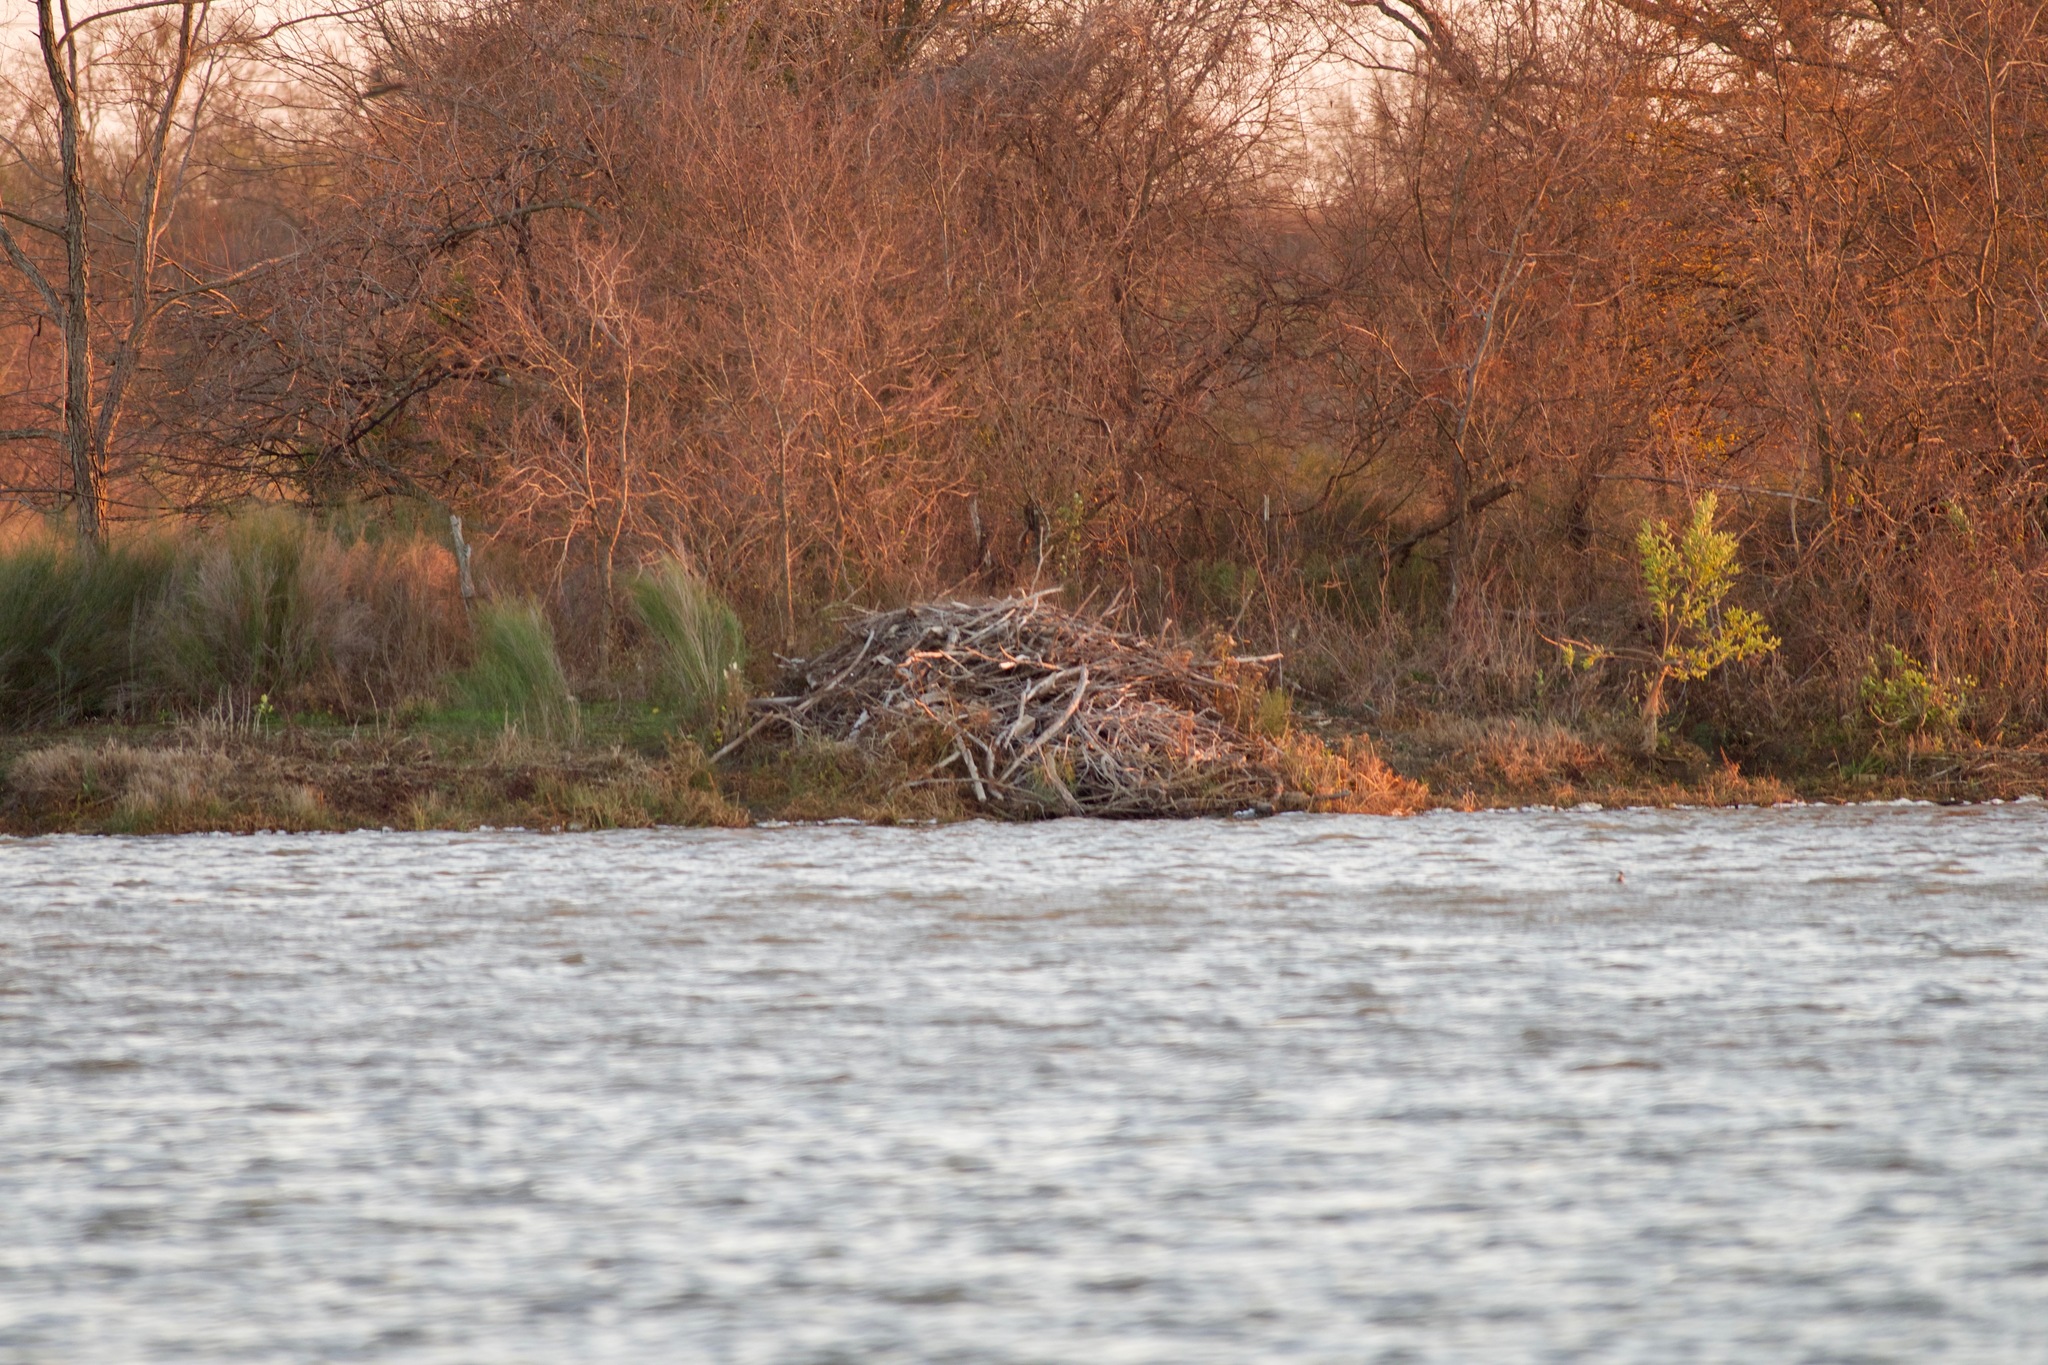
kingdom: Animalia
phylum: Chordata
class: Mammalia
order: Rodentia
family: Castoridae
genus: Castor
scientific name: Castor canadensis
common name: American beaver
